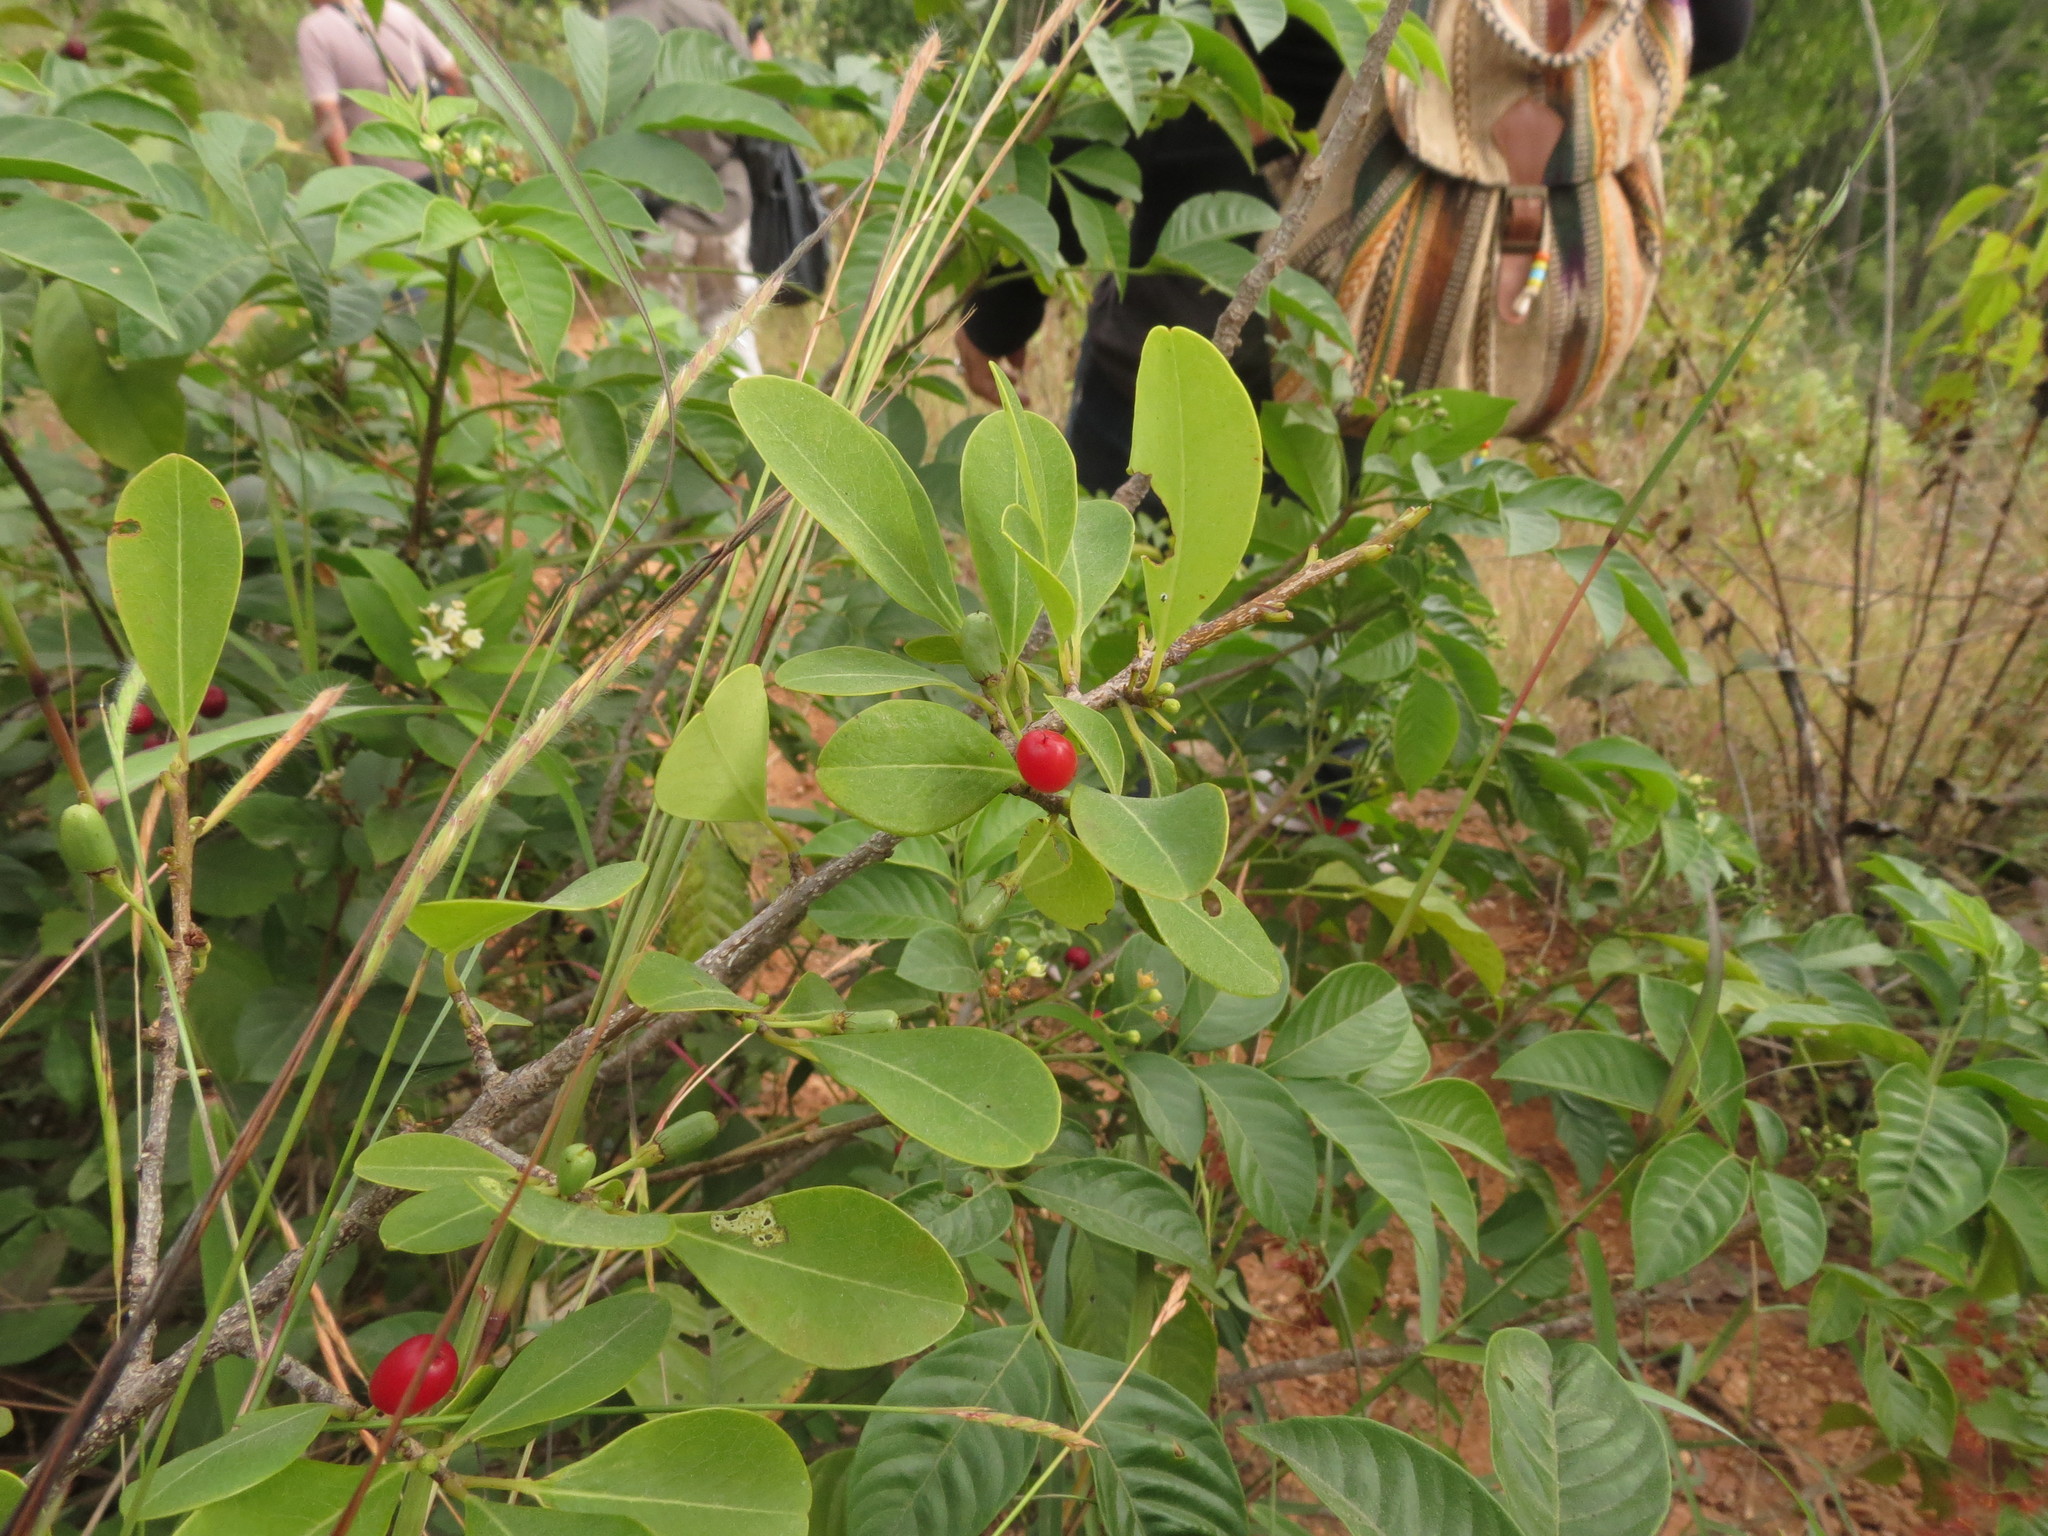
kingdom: Plantae
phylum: Tracheophyta
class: Magnoliopsida
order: Malpighiales
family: Erythroxylaceae
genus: Erythroxylum
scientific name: Erythroxylum monogynum
